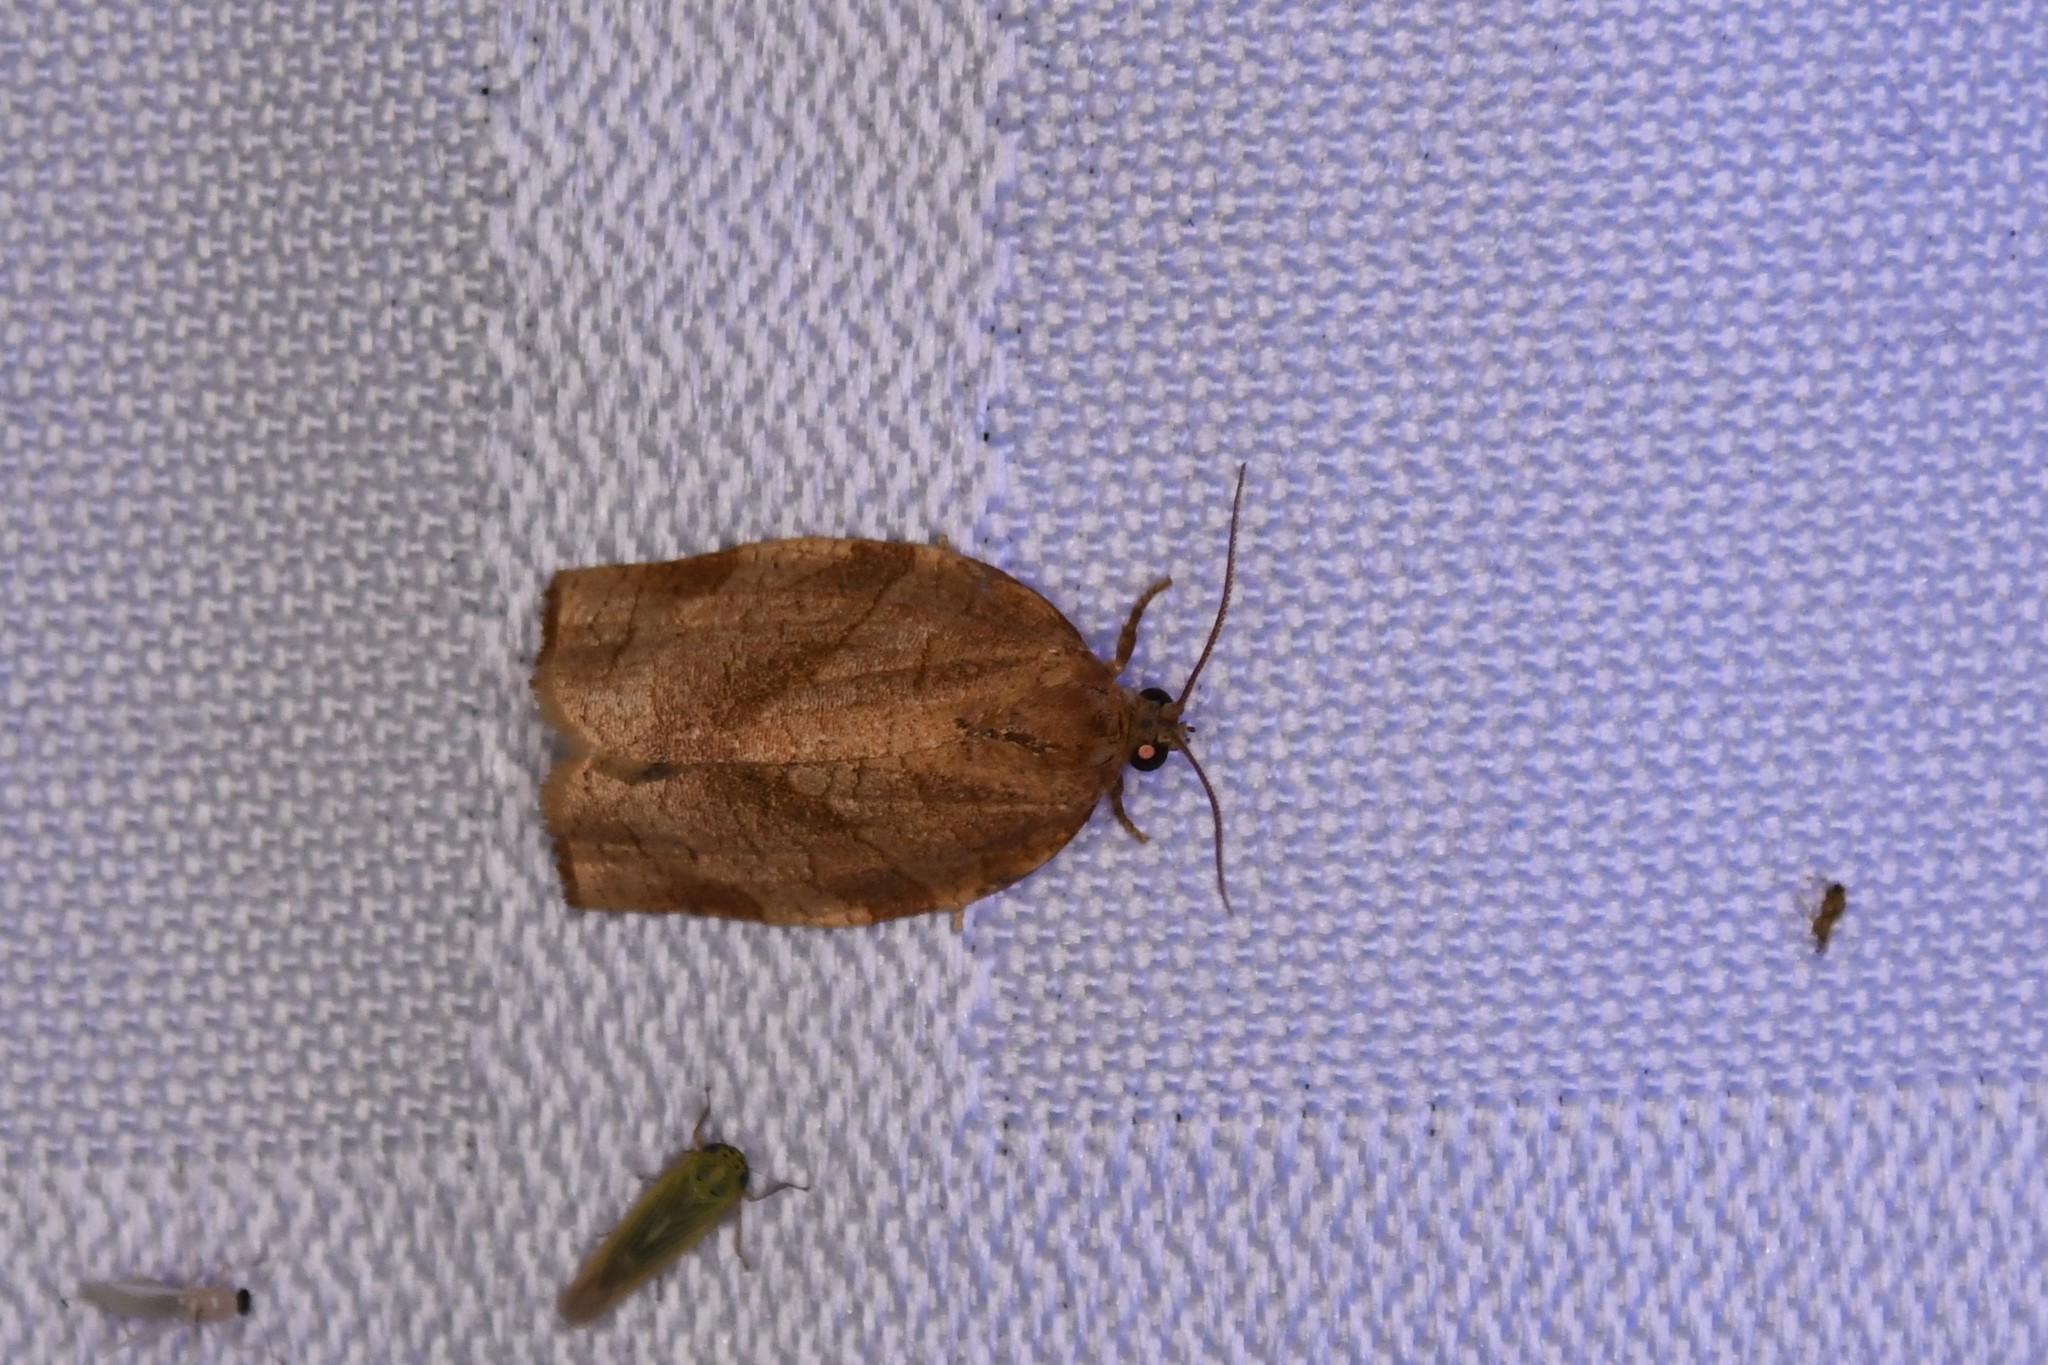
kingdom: Animalia
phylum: Arthropoda
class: Insecta
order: Lepidoptera
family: Tortricidae
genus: Choristoneura
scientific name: Choristoneura rosaceana
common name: Oblique-banded leafroller moth
